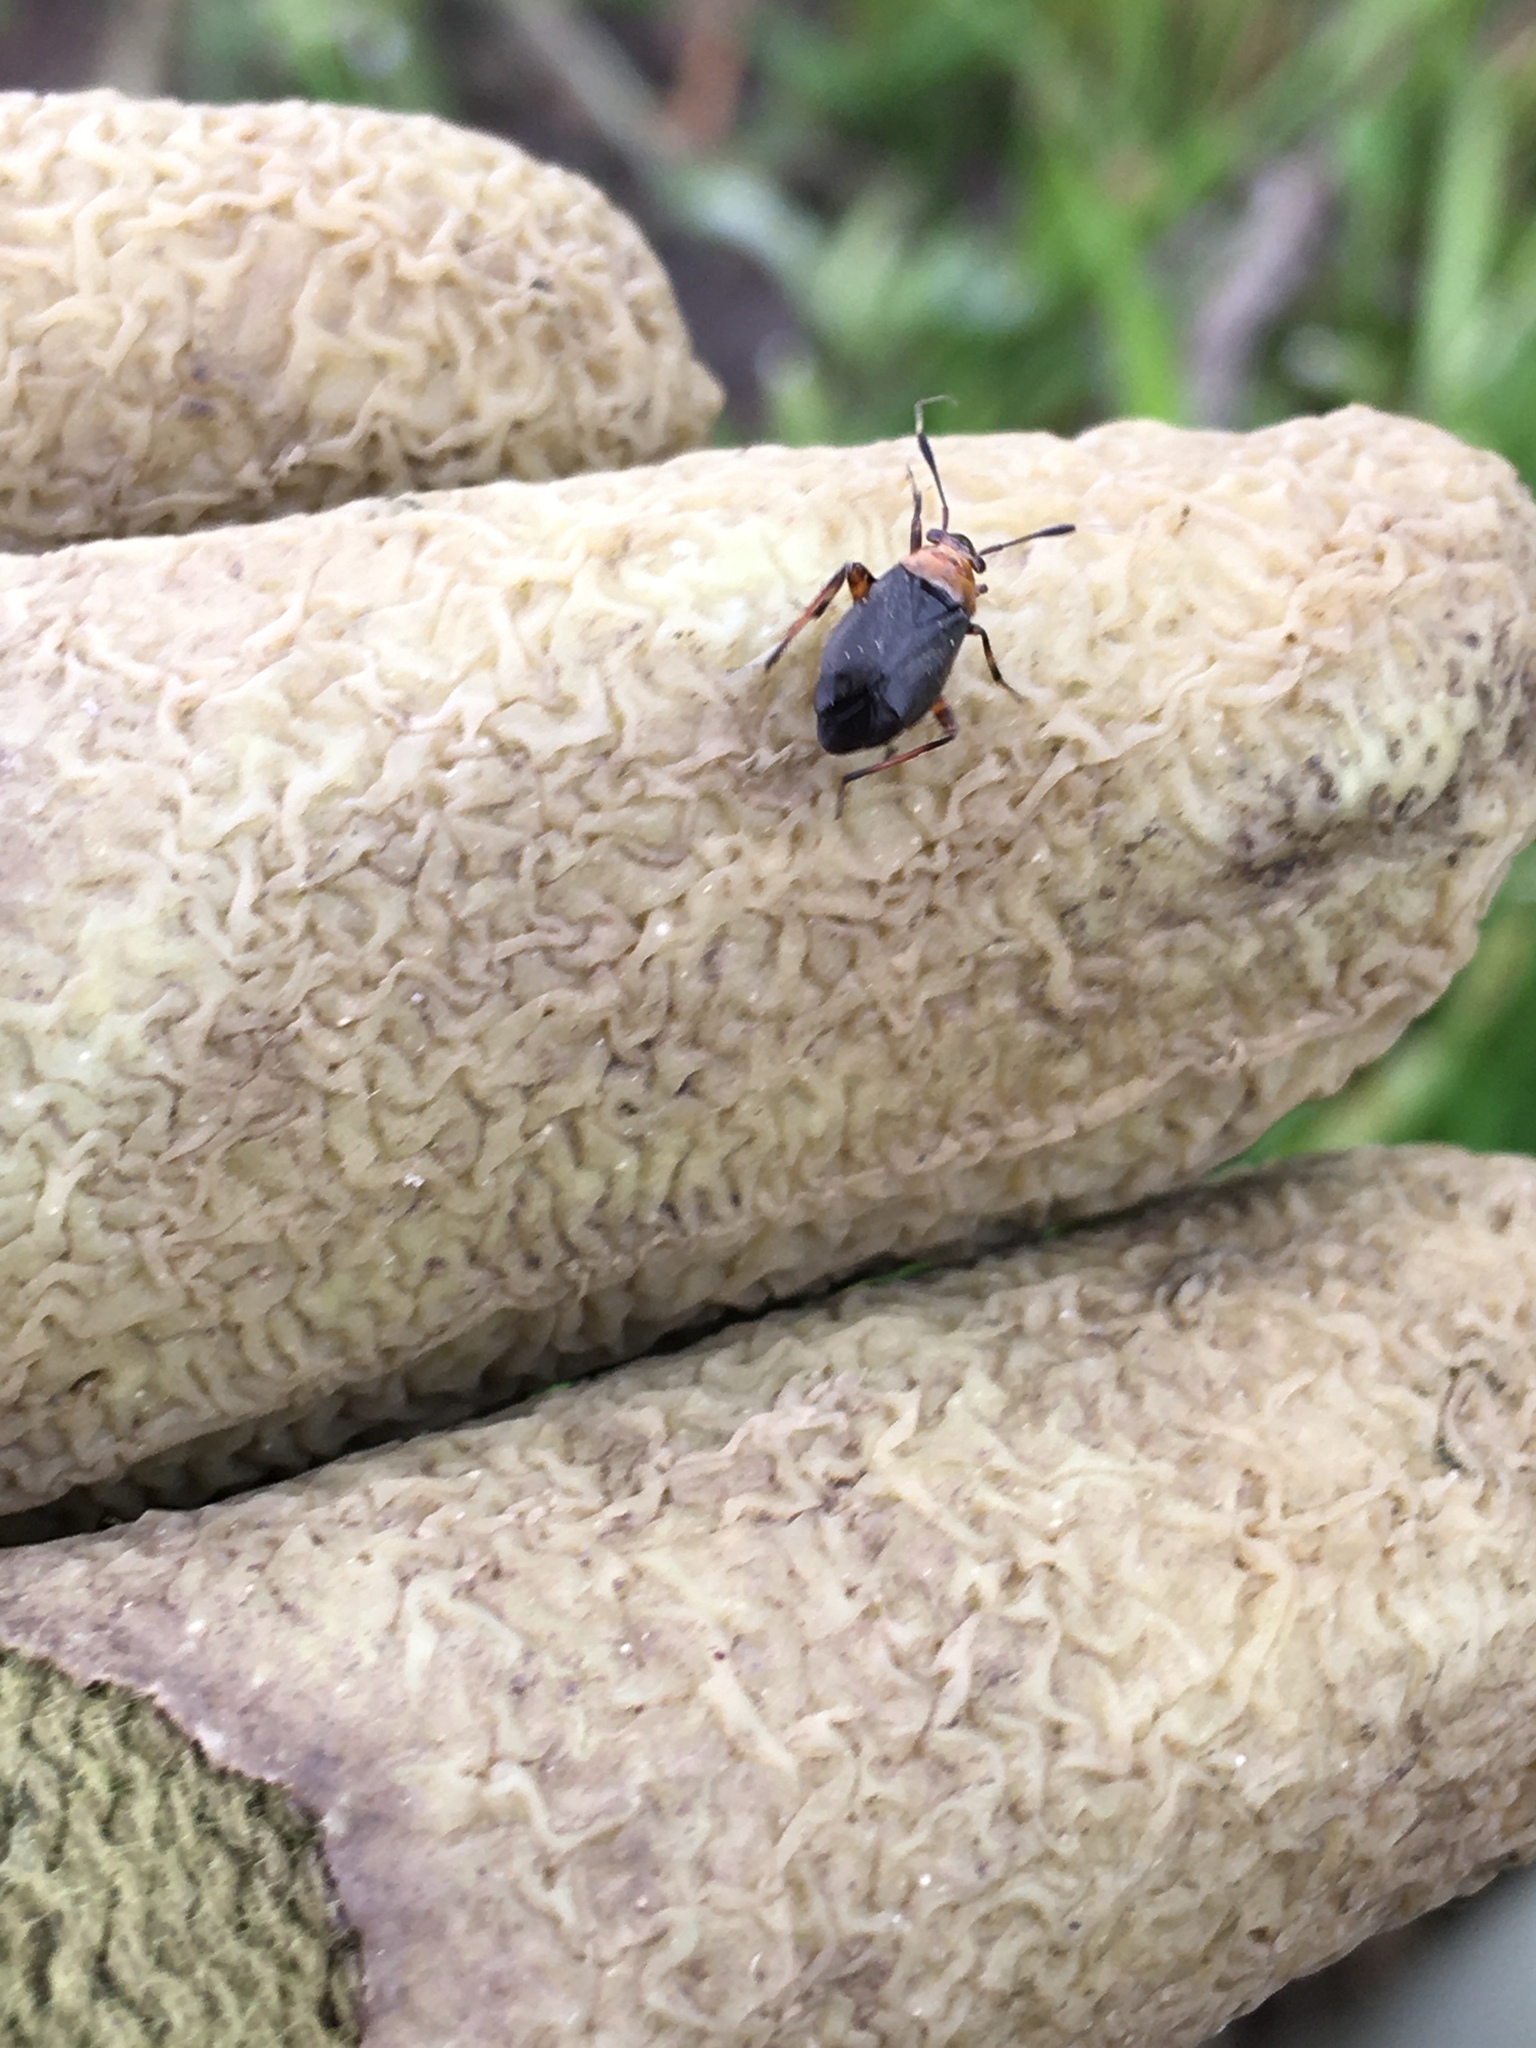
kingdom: Animalia
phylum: Arthropoda
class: Insecta
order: Hemiptera
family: Miridae
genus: Capsus
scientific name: Capsus ater
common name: Black plant bug
